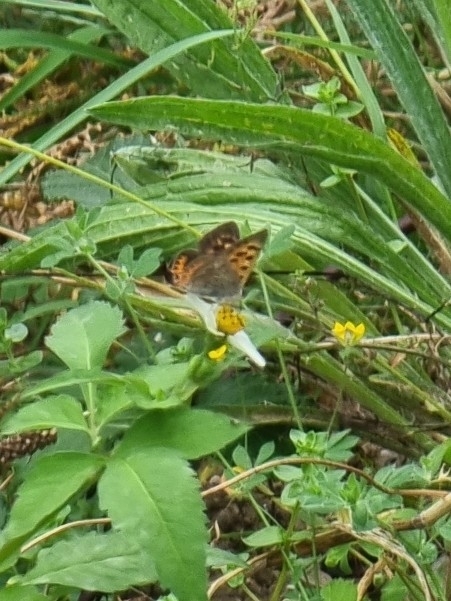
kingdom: Animalia
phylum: Arthropoda
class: Insecta
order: Lepidoptera
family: Lycaenidae
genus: Lycaena
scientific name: Lycaena phlaeas
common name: Small copper
